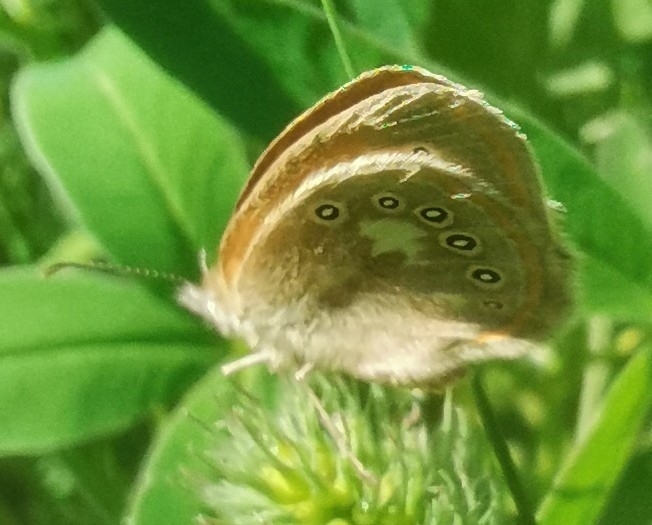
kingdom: Animalia
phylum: Arthropoda
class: Insecta
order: Lepidoptera
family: Nymphalidae
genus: Coenonympha
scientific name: Coenonympha iphis
